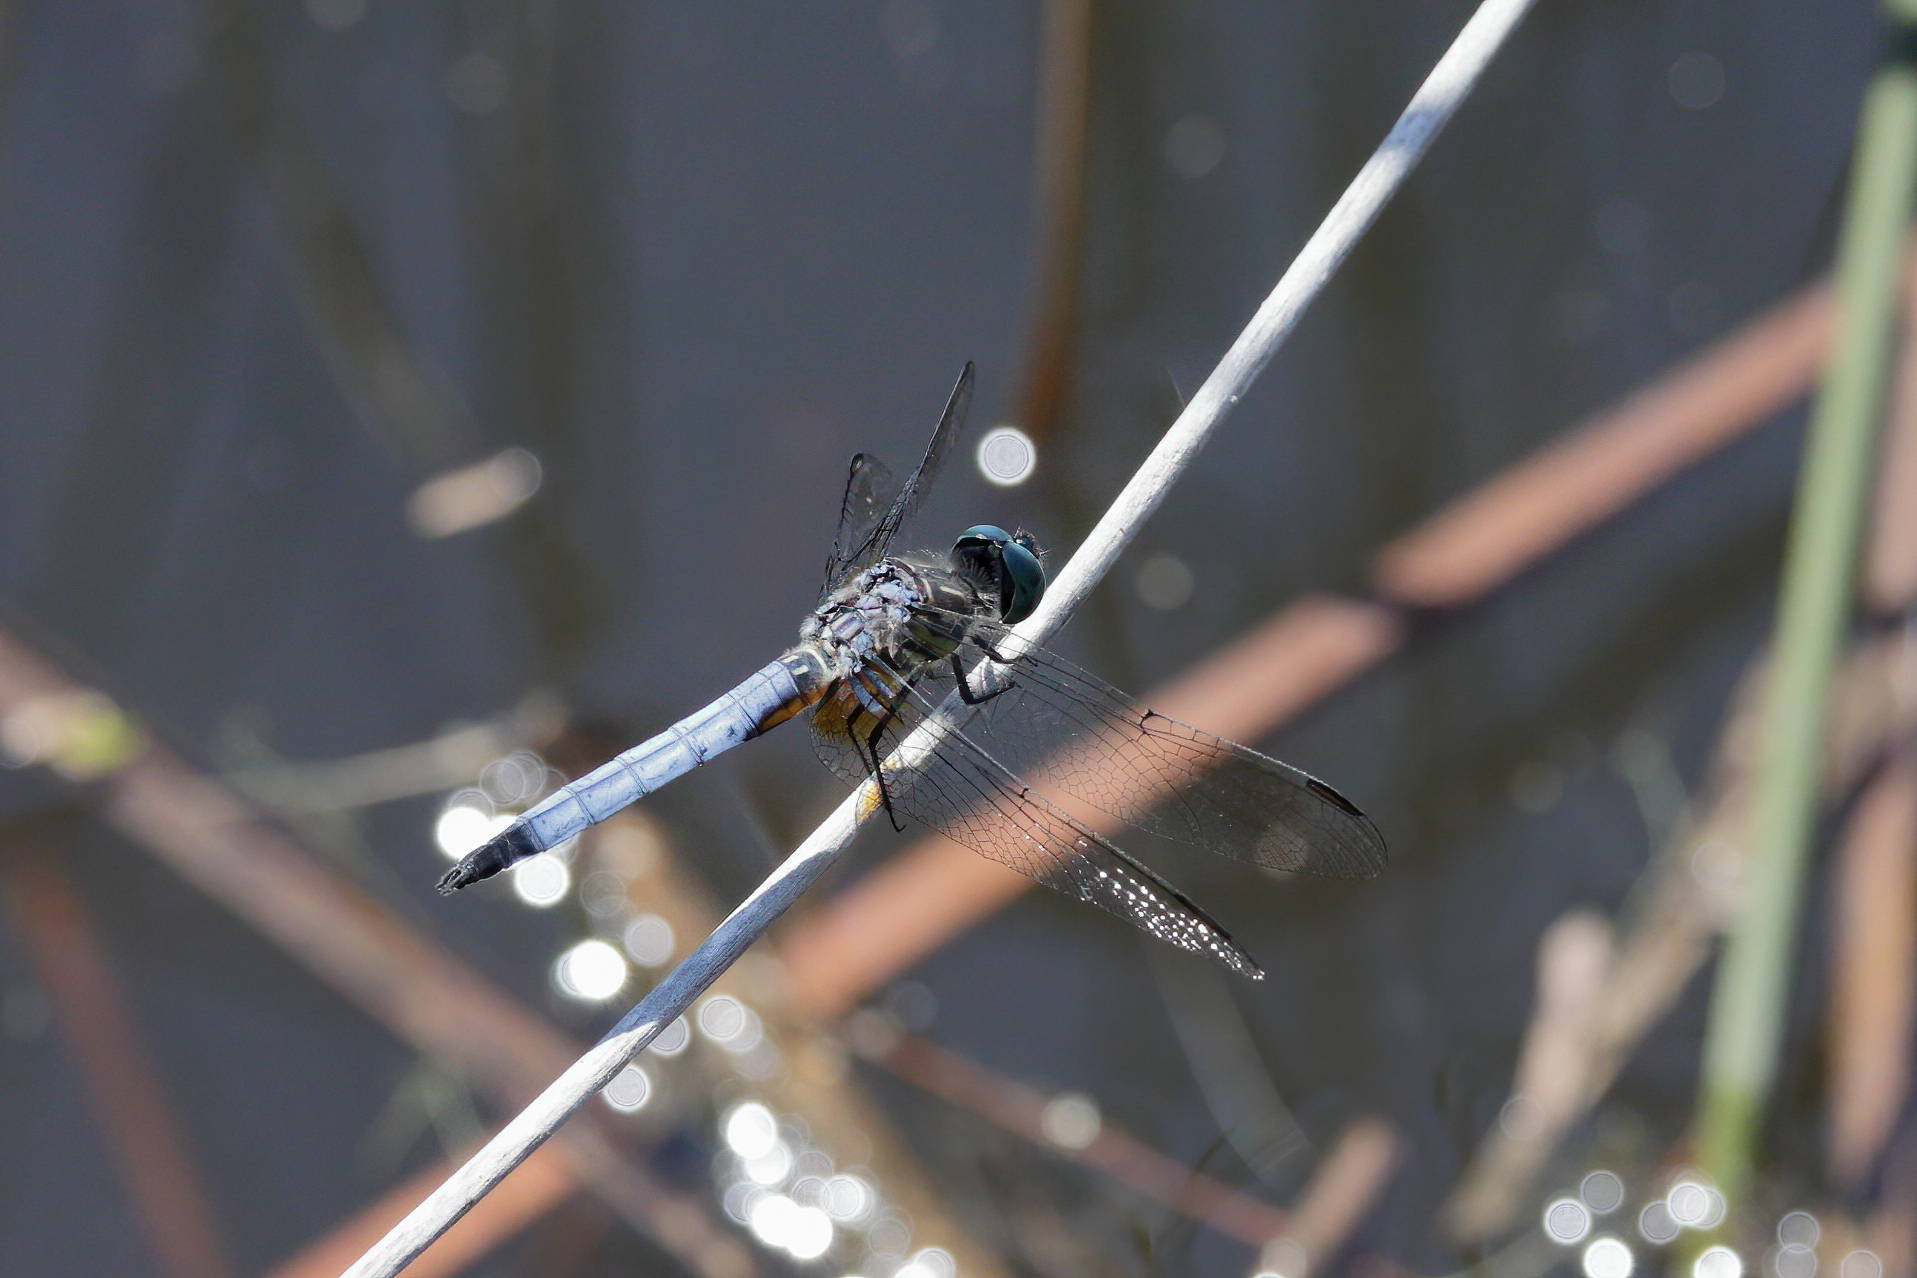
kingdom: Animalia
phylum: Arthropoda
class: Insecta
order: Odonata
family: Libellulidae
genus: Pachydiplax
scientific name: Pachydiplax longipennis
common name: Blue dasher
